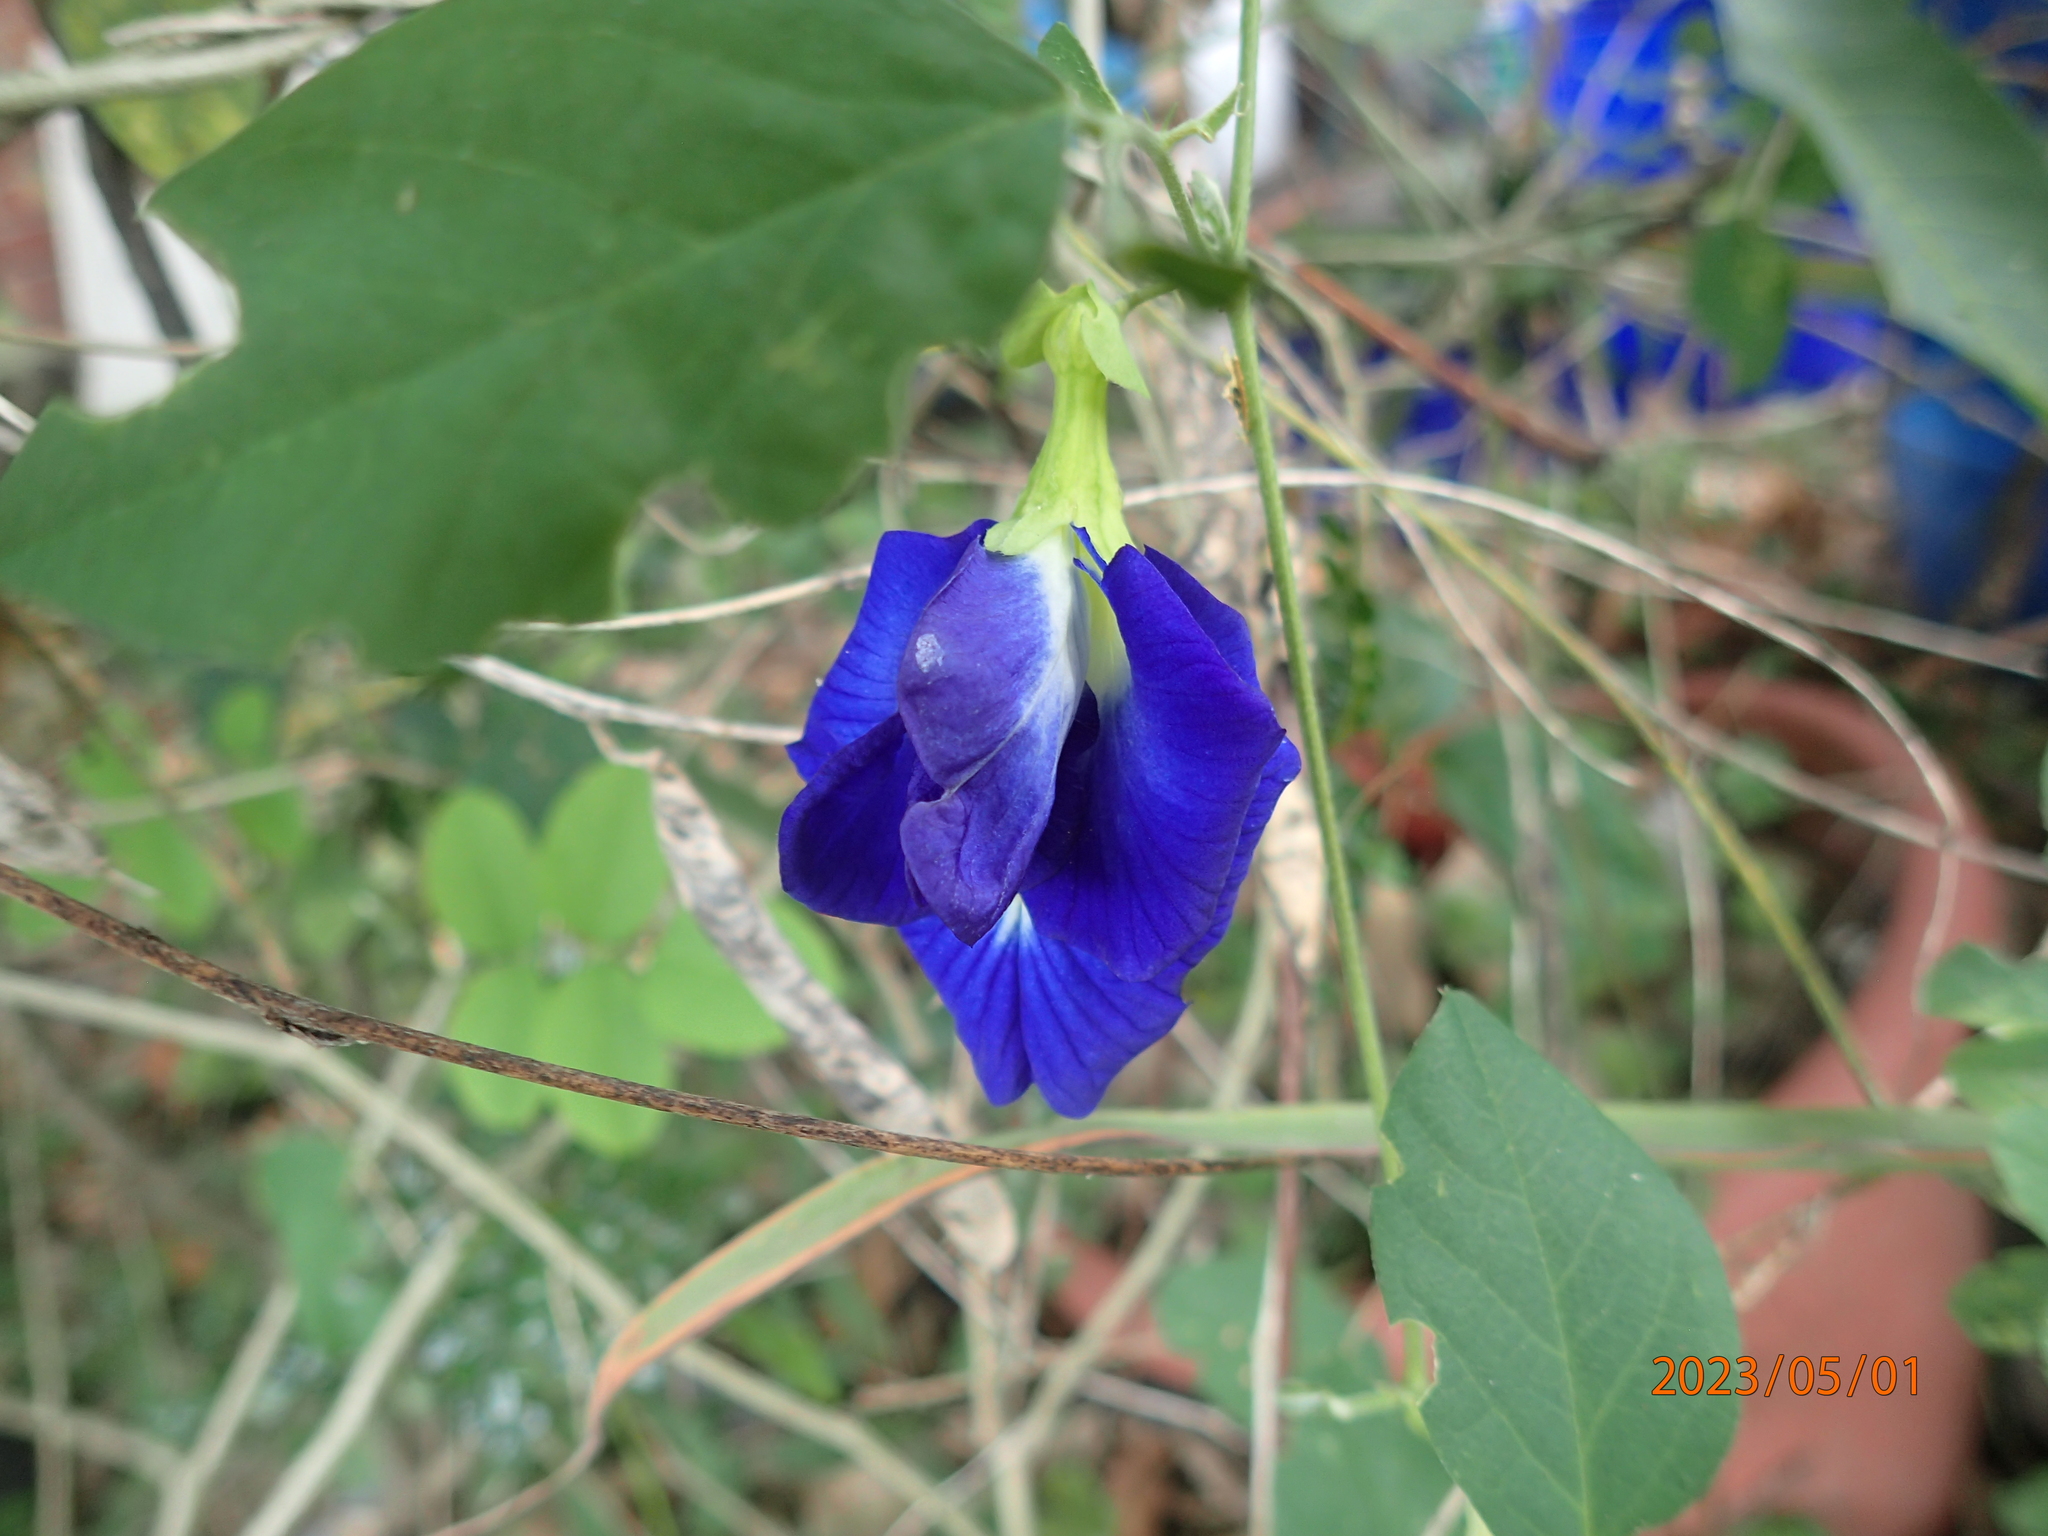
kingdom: Plantae
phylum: Tracheophyta
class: Magnoliopsida
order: Fabales
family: Fabaceae
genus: Clitoria
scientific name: Clitoria ternatea
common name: Asian pigeonwings
